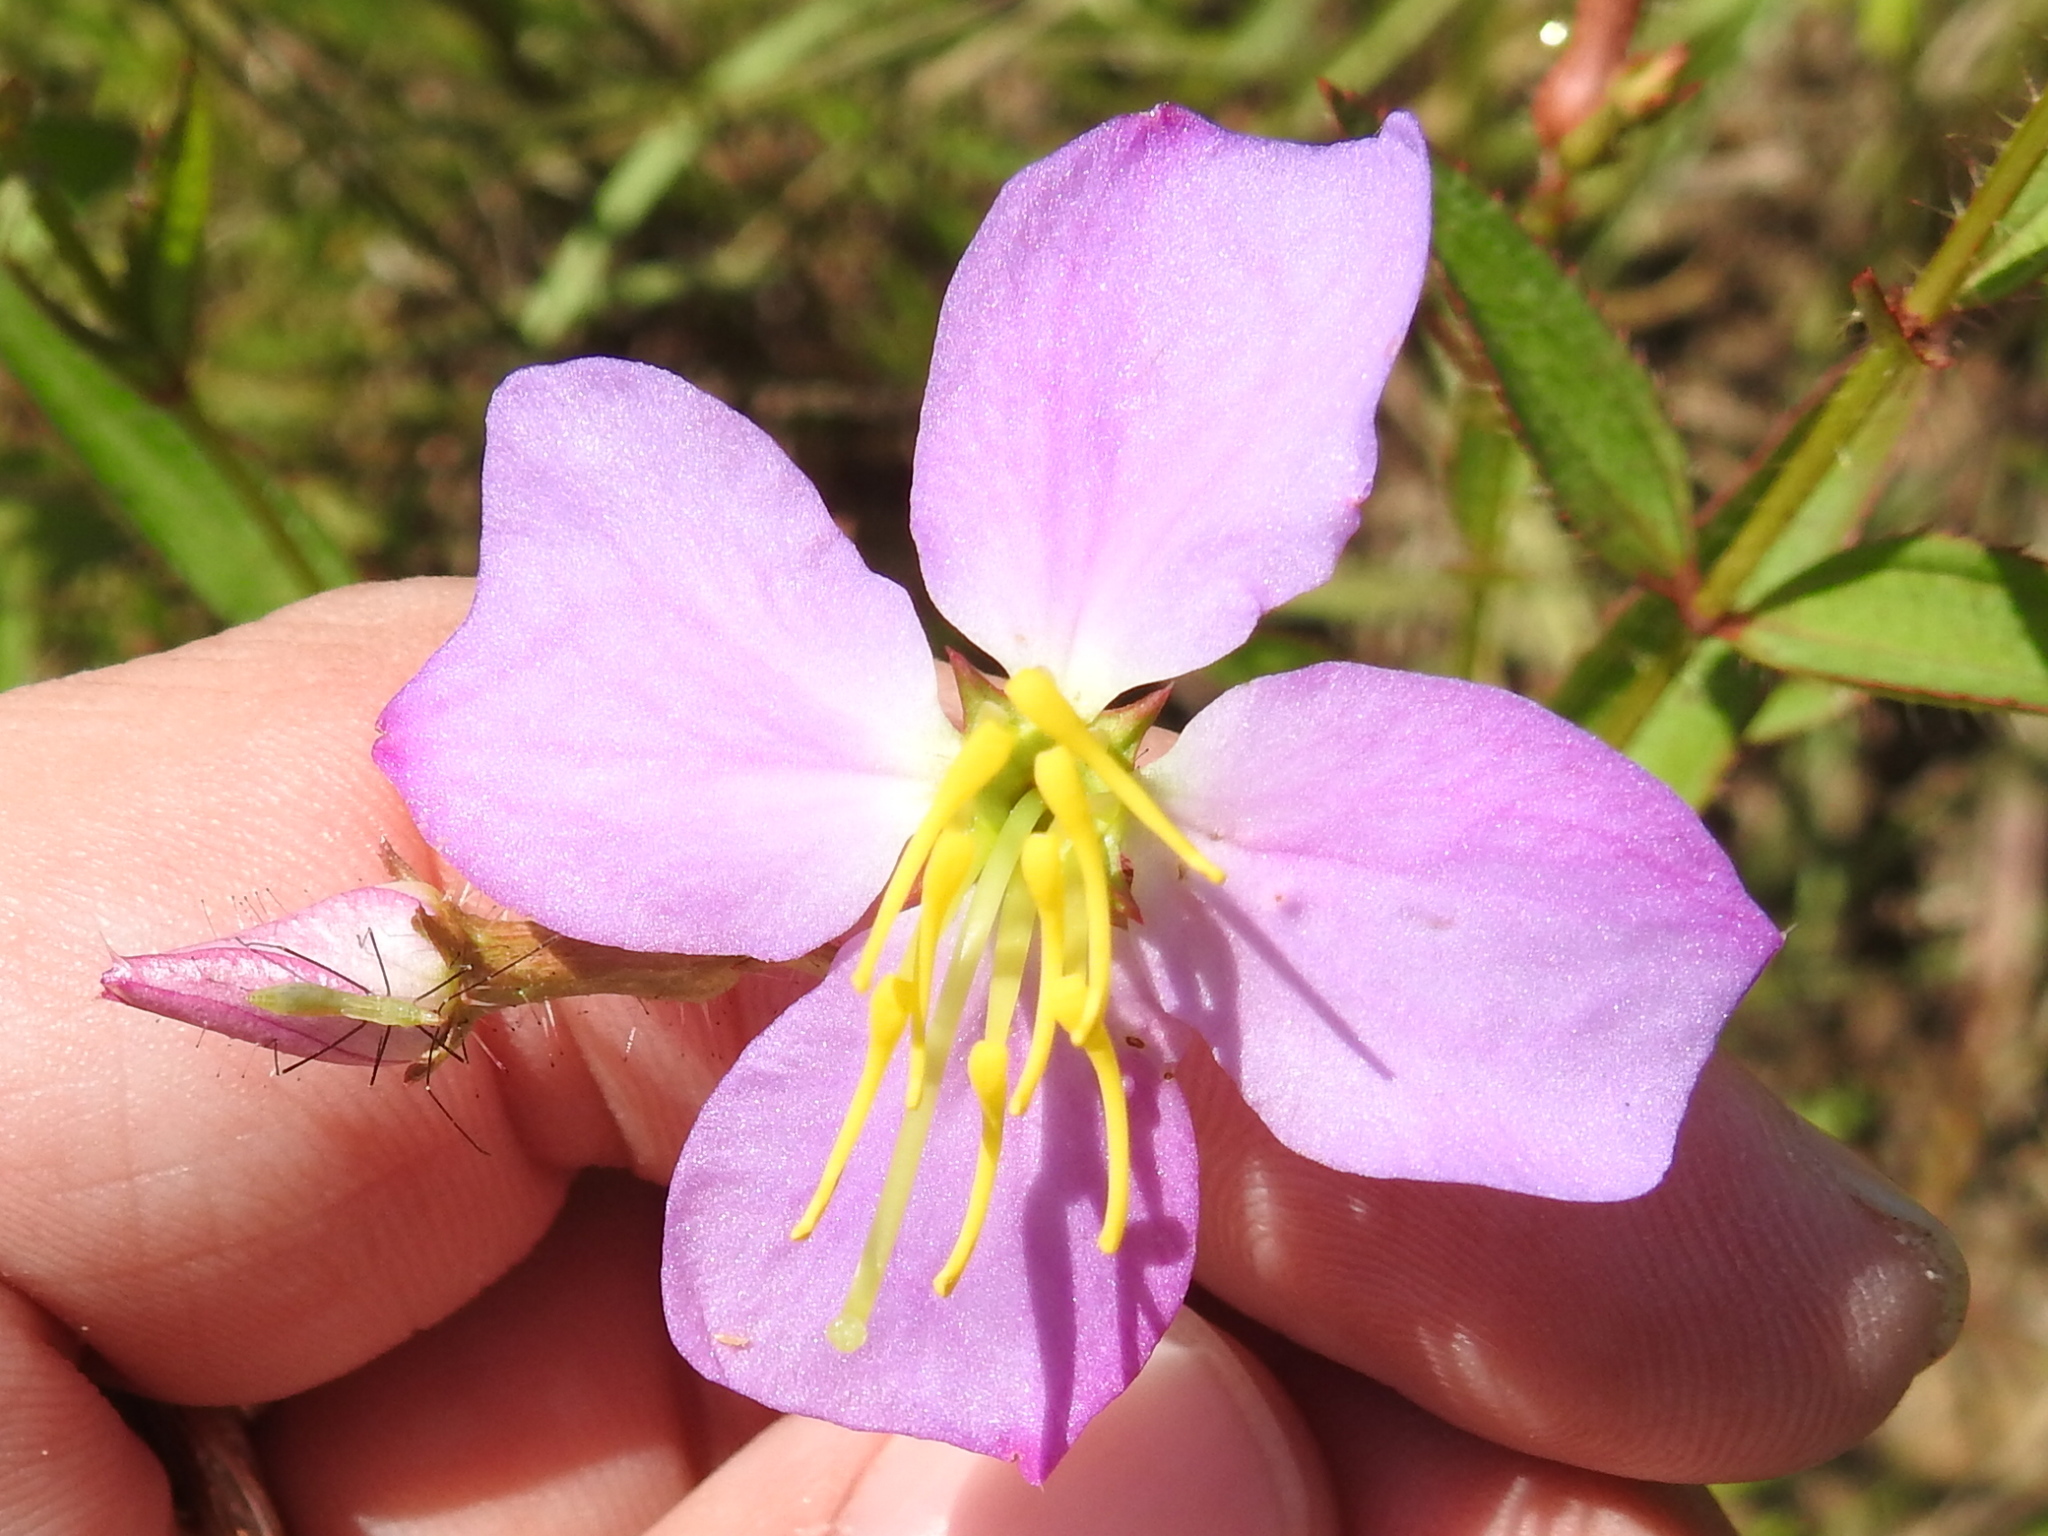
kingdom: Plantae
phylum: Tracheophyta
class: Magnoliopsida
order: Myrtales
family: Melastomataceae
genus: Rhexia
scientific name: Rhexia mariana
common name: Dull meadow-pitcher
